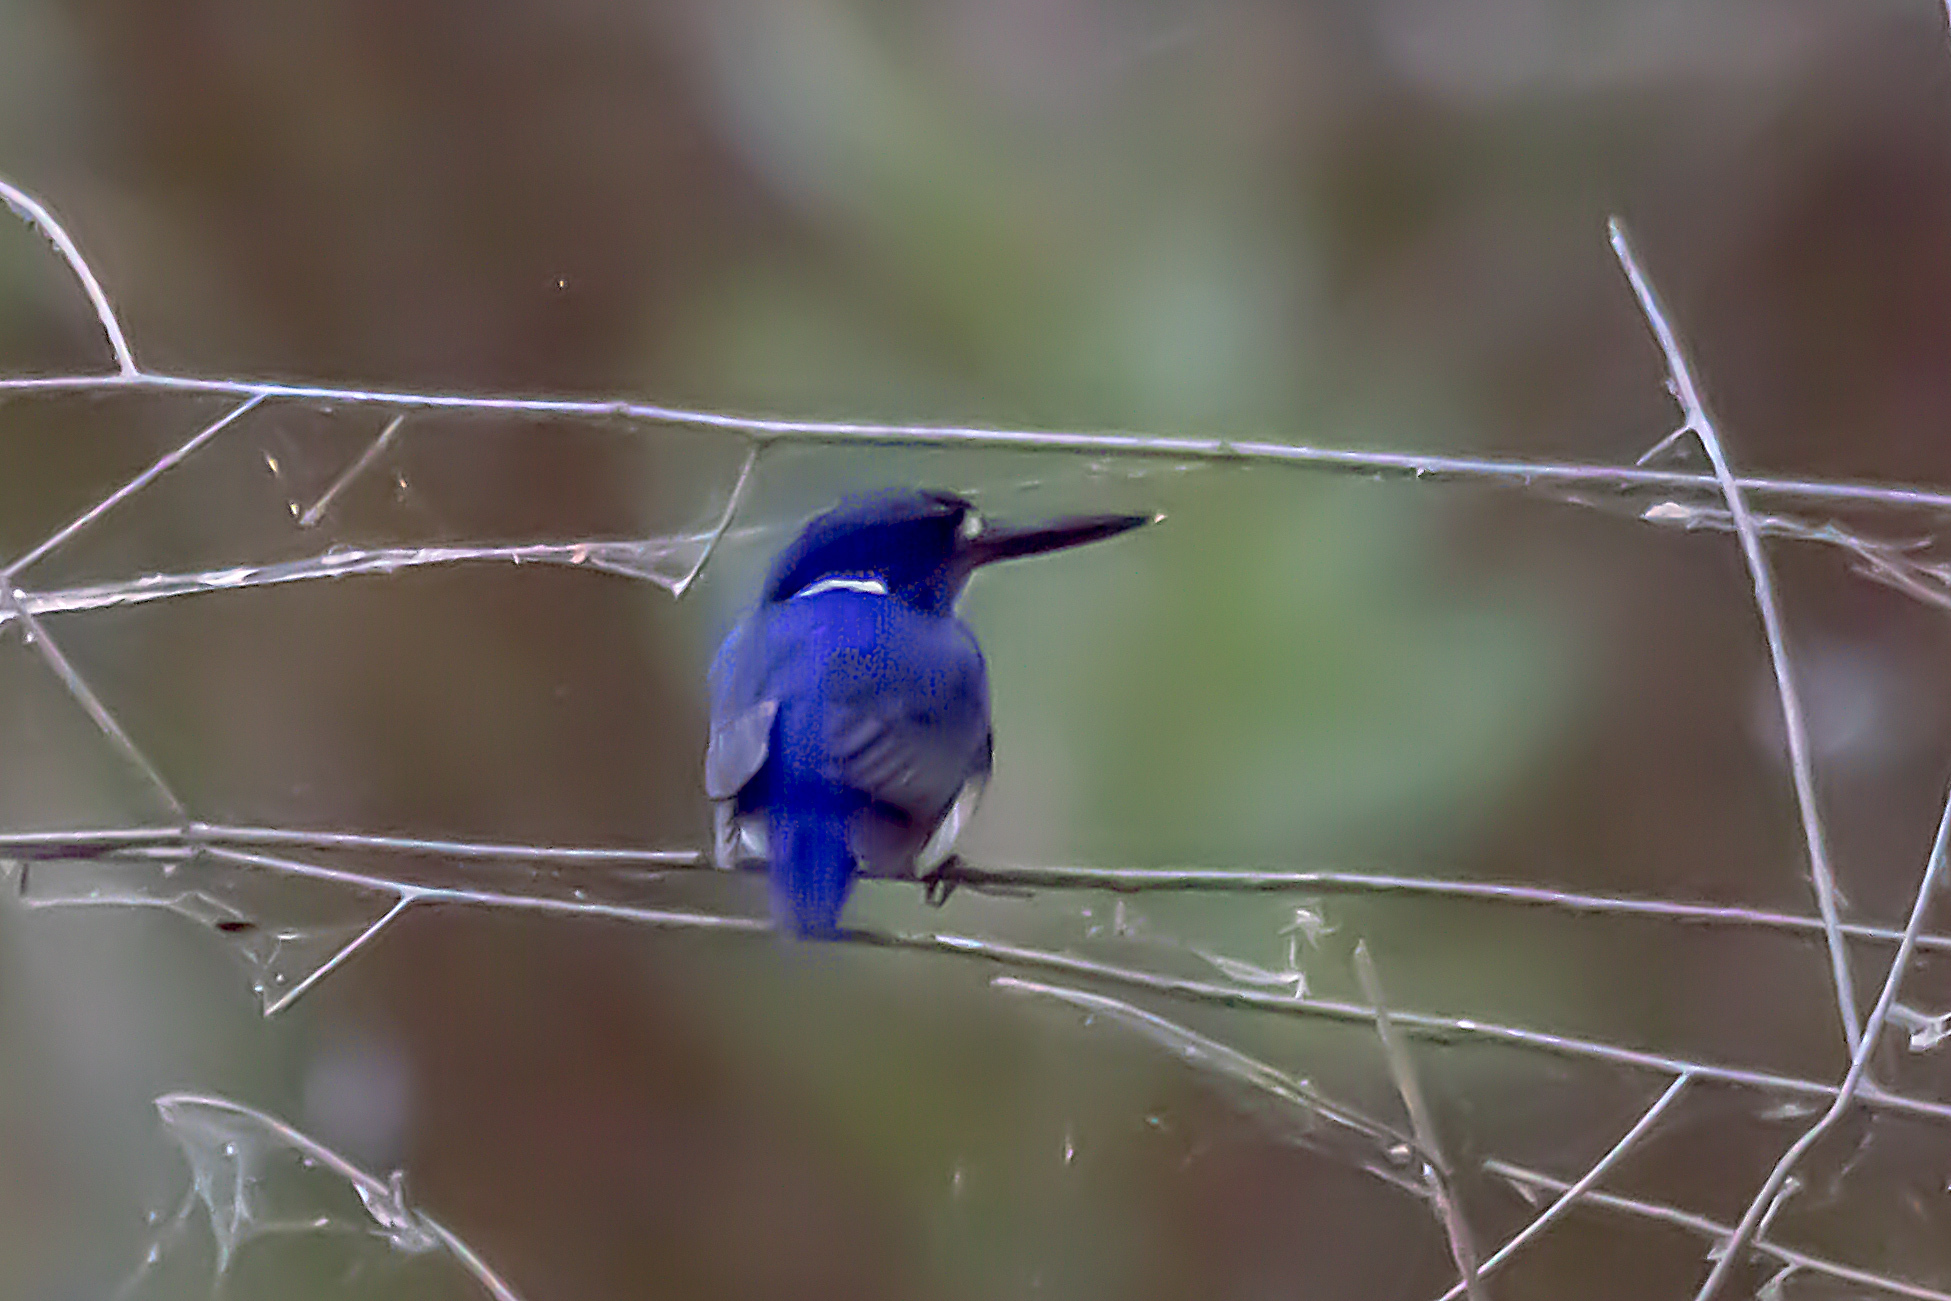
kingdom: Animalia
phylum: Chordata
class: Aves
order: Coraciiformes
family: Alcedinidae
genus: Ceyx
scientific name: Ceyx pusillus
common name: Little kingfisher
